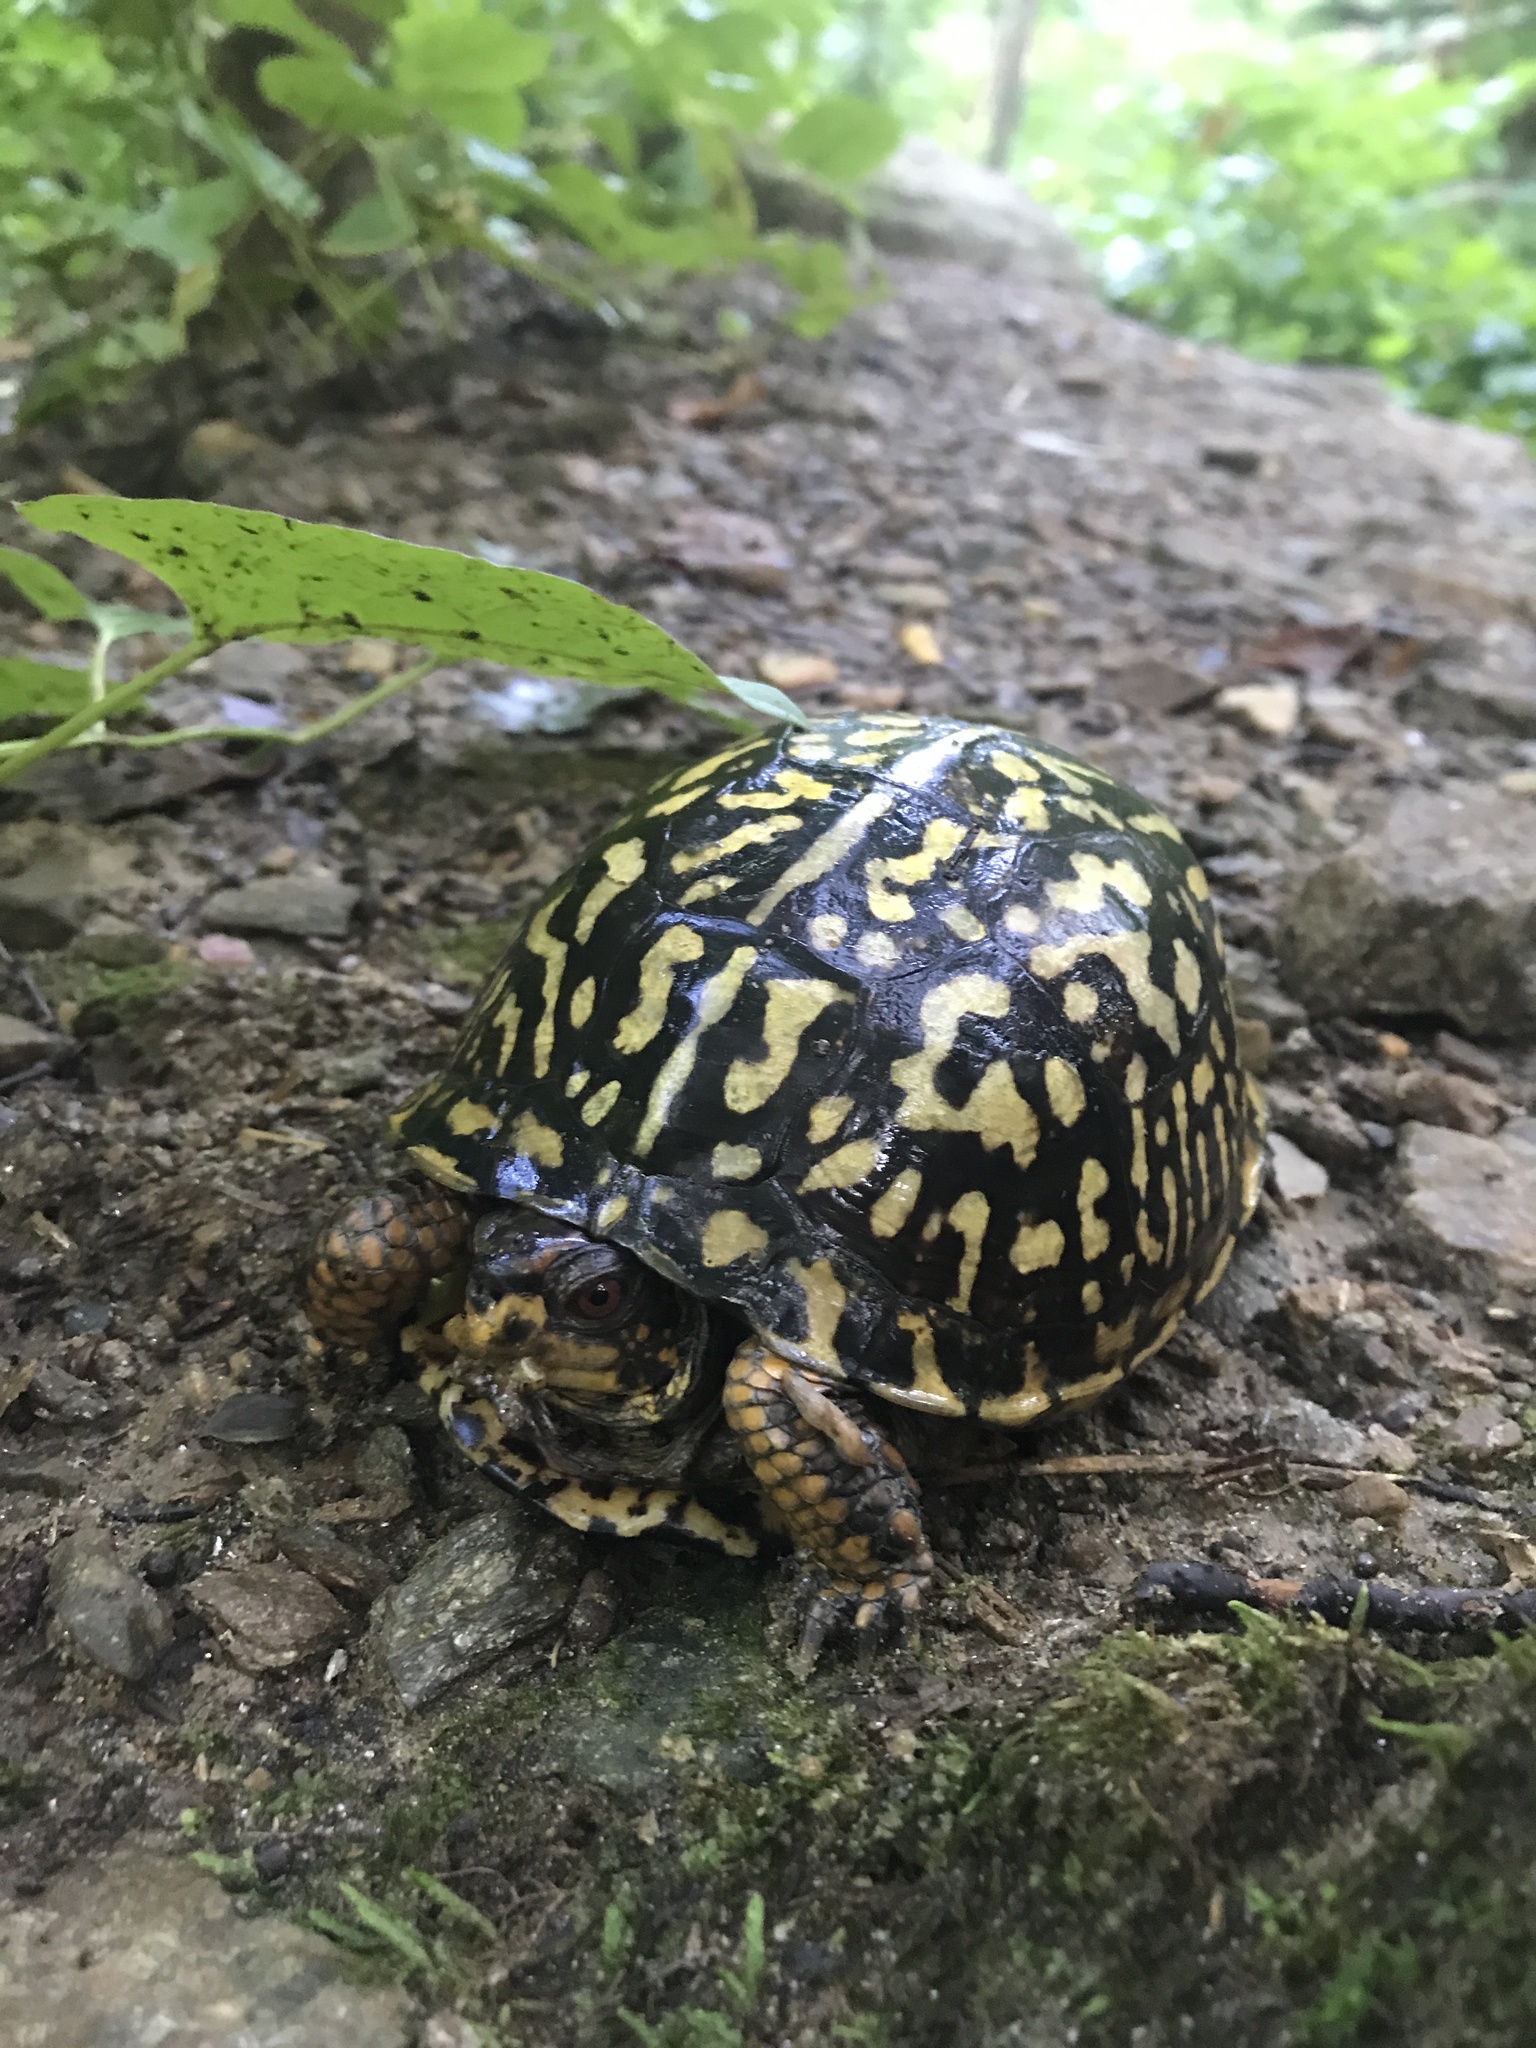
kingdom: Animalia
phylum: Chordata
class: Testudines
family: Emydidae
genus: Terrapene
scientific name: Terrapene carolina
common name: Common box turtle
